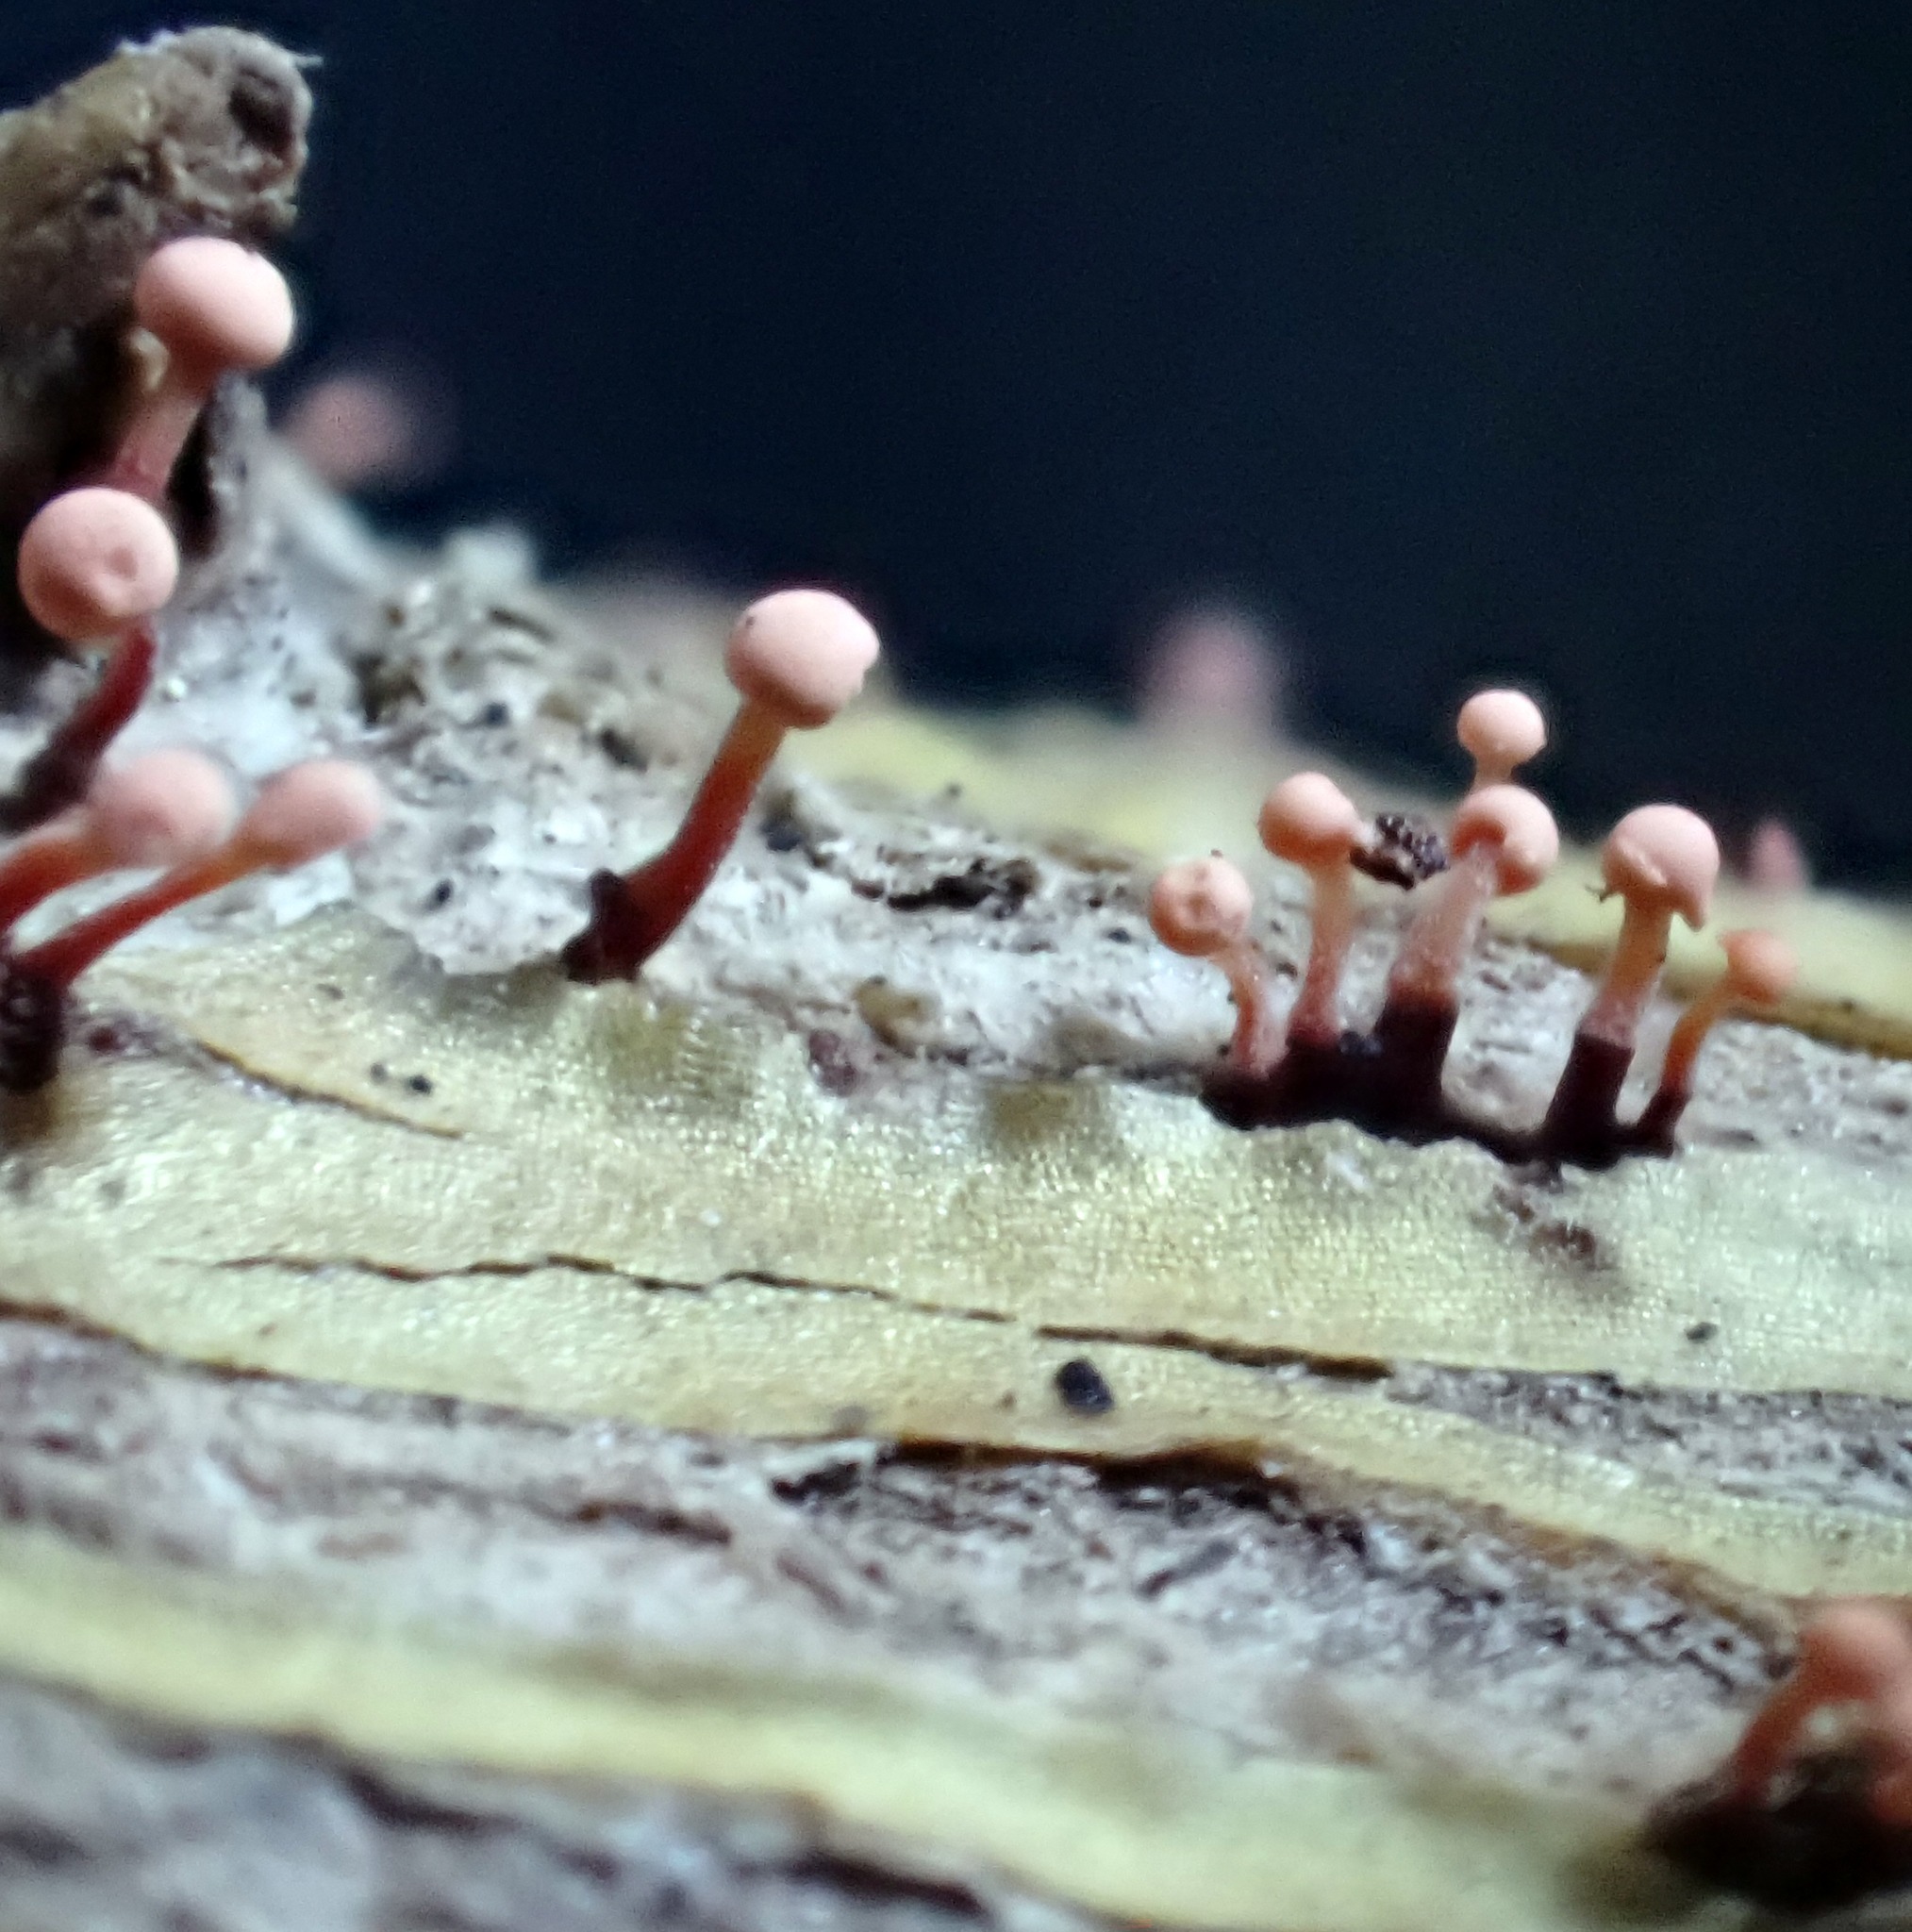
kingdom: Fungi
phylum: Ascomycota
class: Sordariomycetes
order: Hypocreales
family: Nectriaceae
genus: Murinectria
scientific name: Murinectria polythalama
